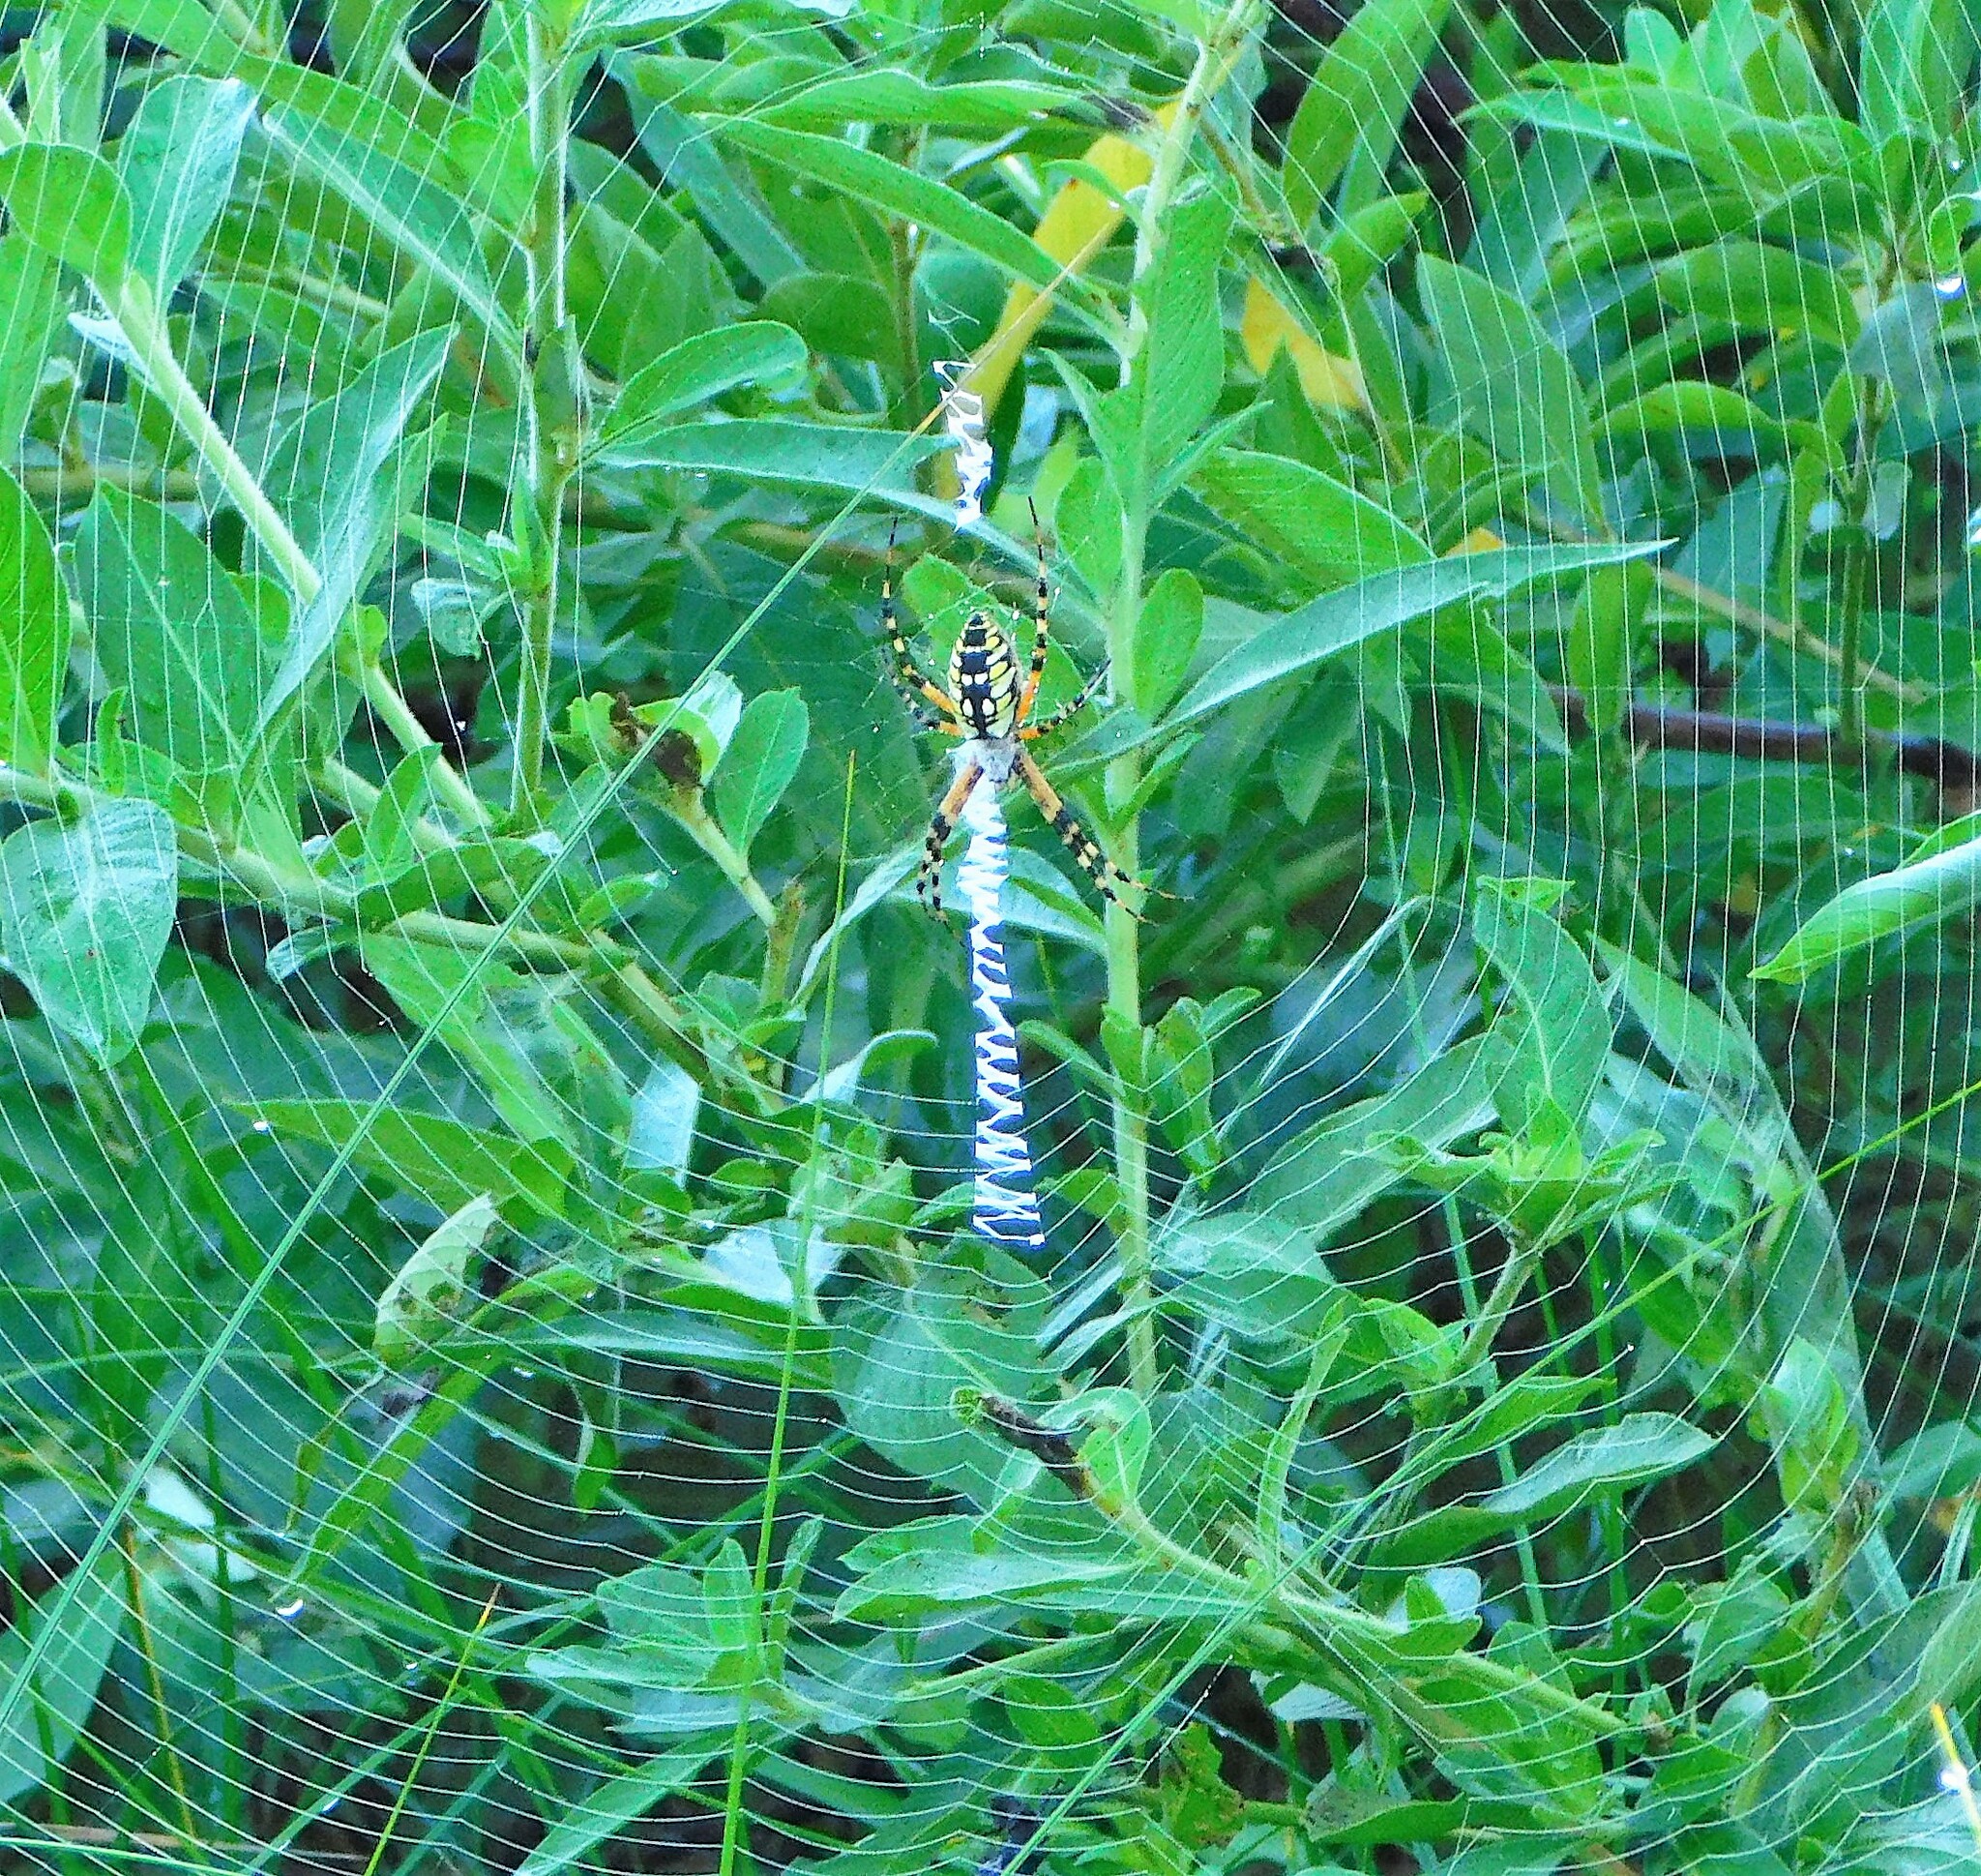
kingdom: Animalia
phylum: Arthropoda
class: Arachnida
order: Araneae
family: Araneidae
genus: Argiope
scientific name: Argiope aurantia
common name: Orb weavers
